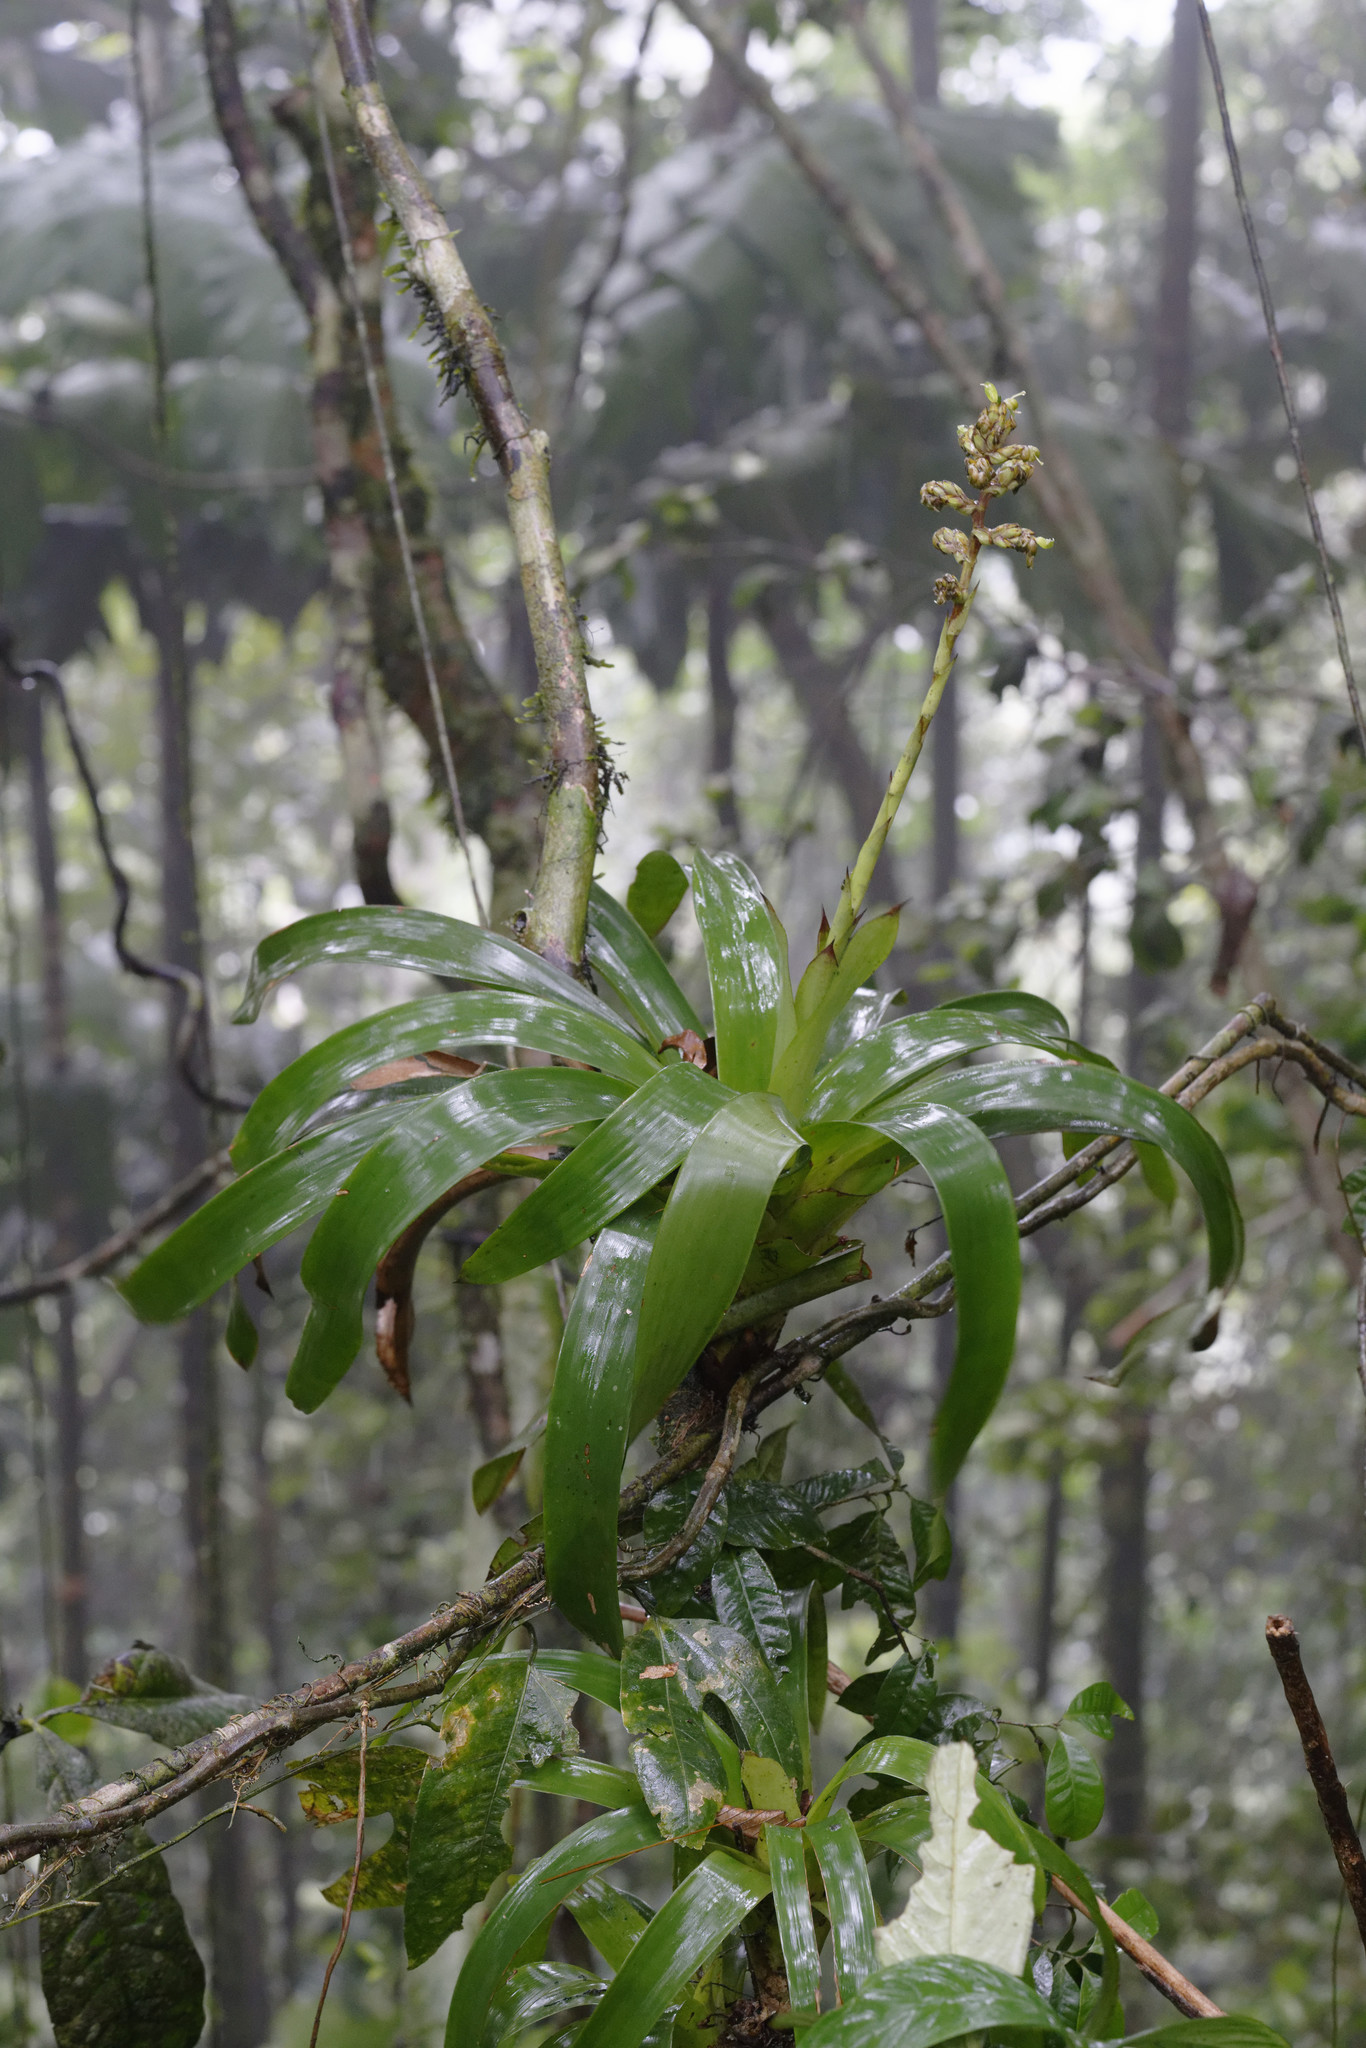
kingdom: Plantae
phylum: Tracheophyta
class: Liliopsida
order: Poales
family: Bromeliaceae
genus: Guzmania
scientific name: Guzmania tarapotina
